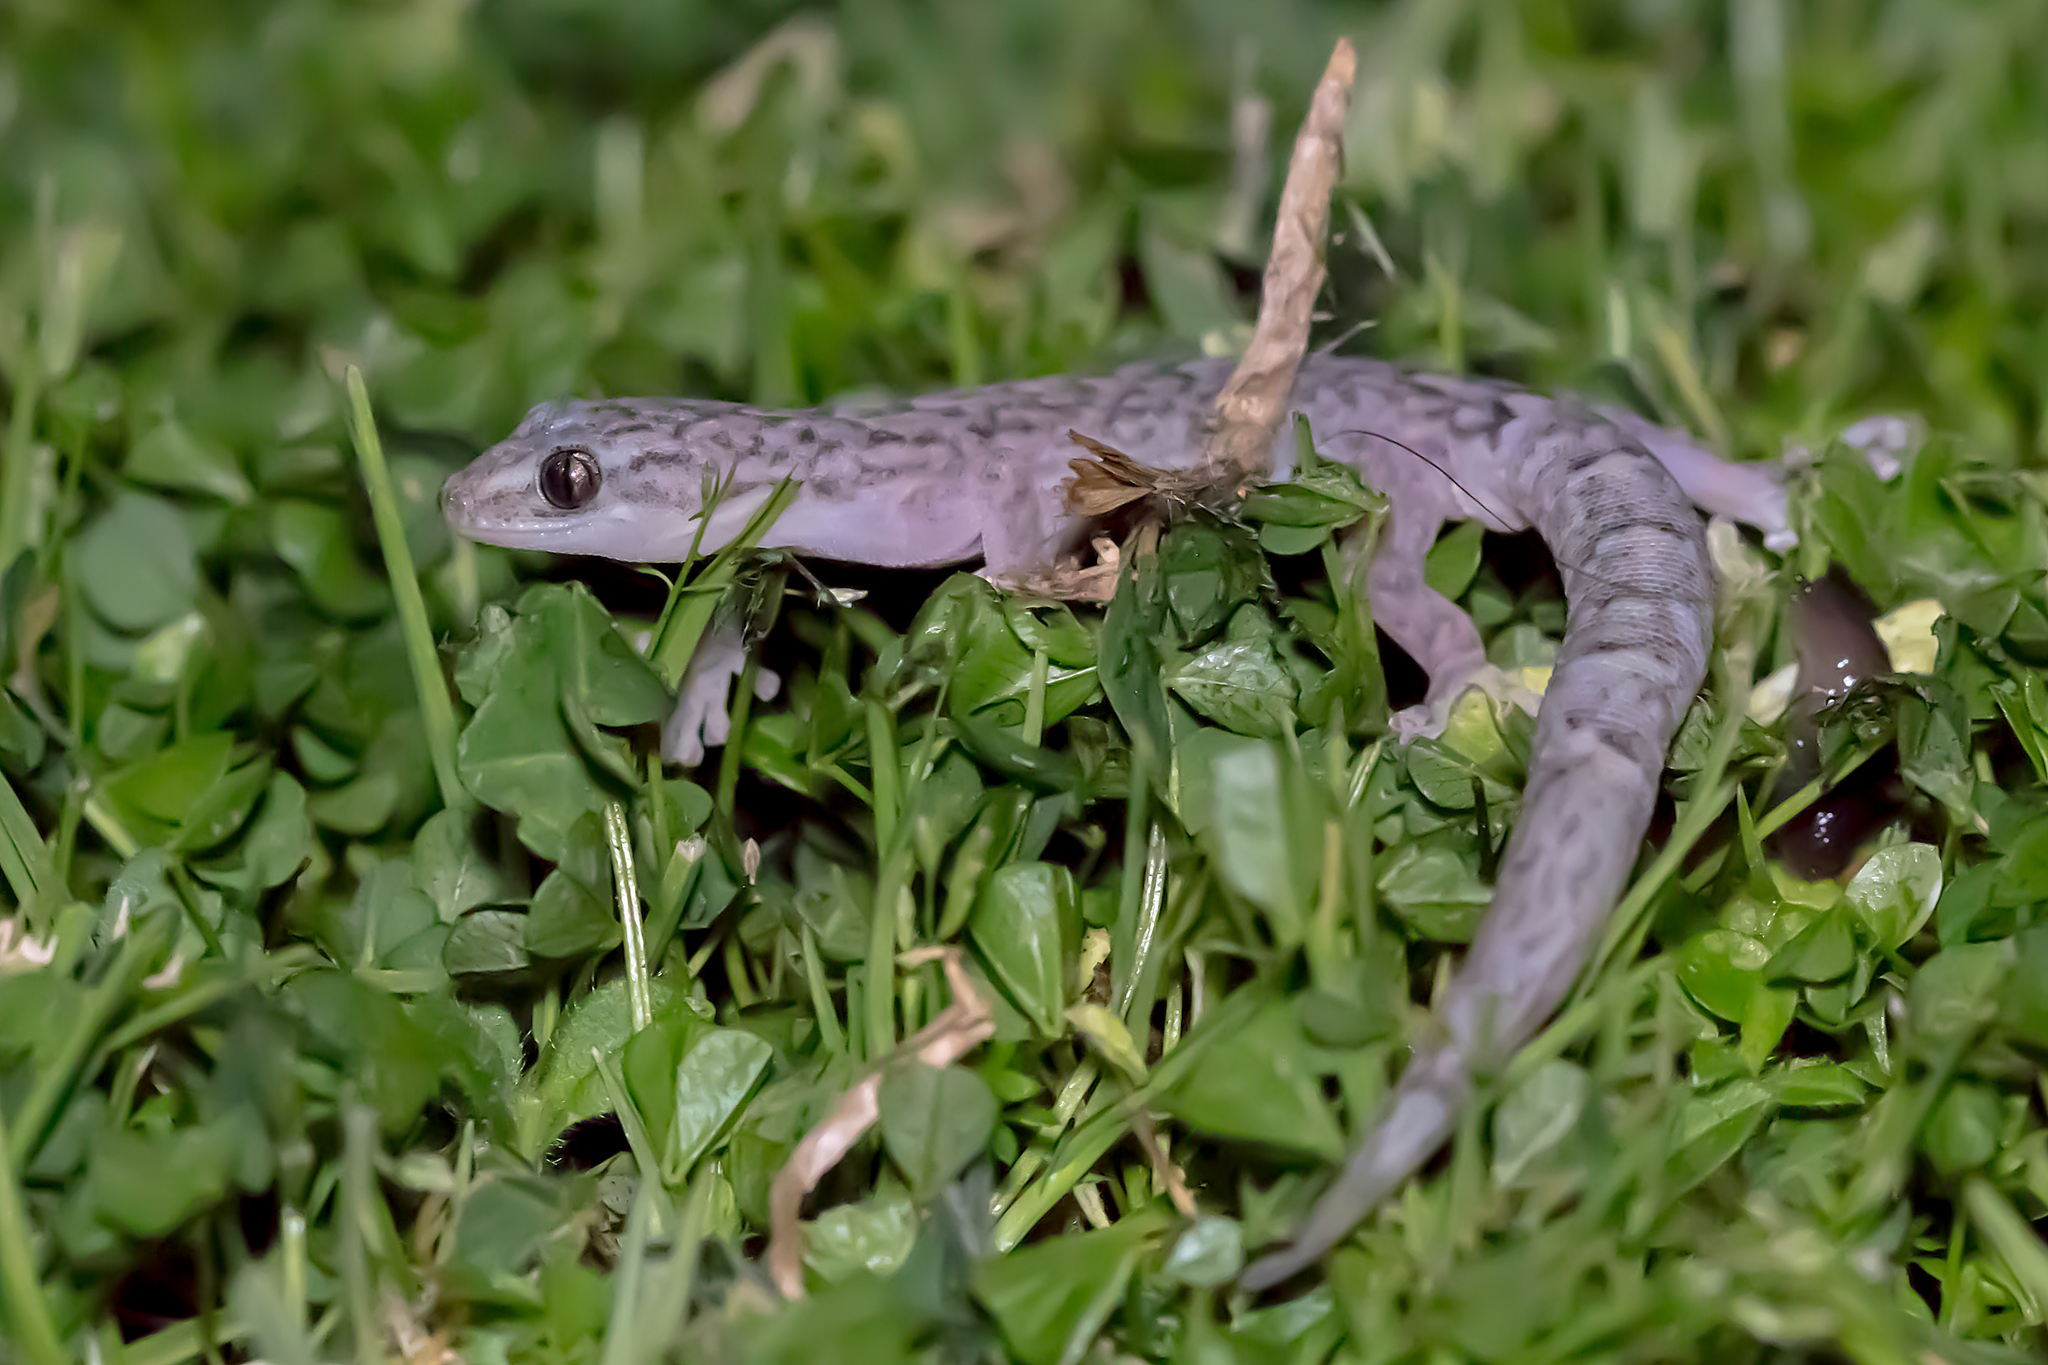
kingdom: Animalia
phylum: Chordata
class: Squamata
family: Gekkonidae
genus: Christinus
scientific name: Christinus marmoratus
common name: Marbled gecko
